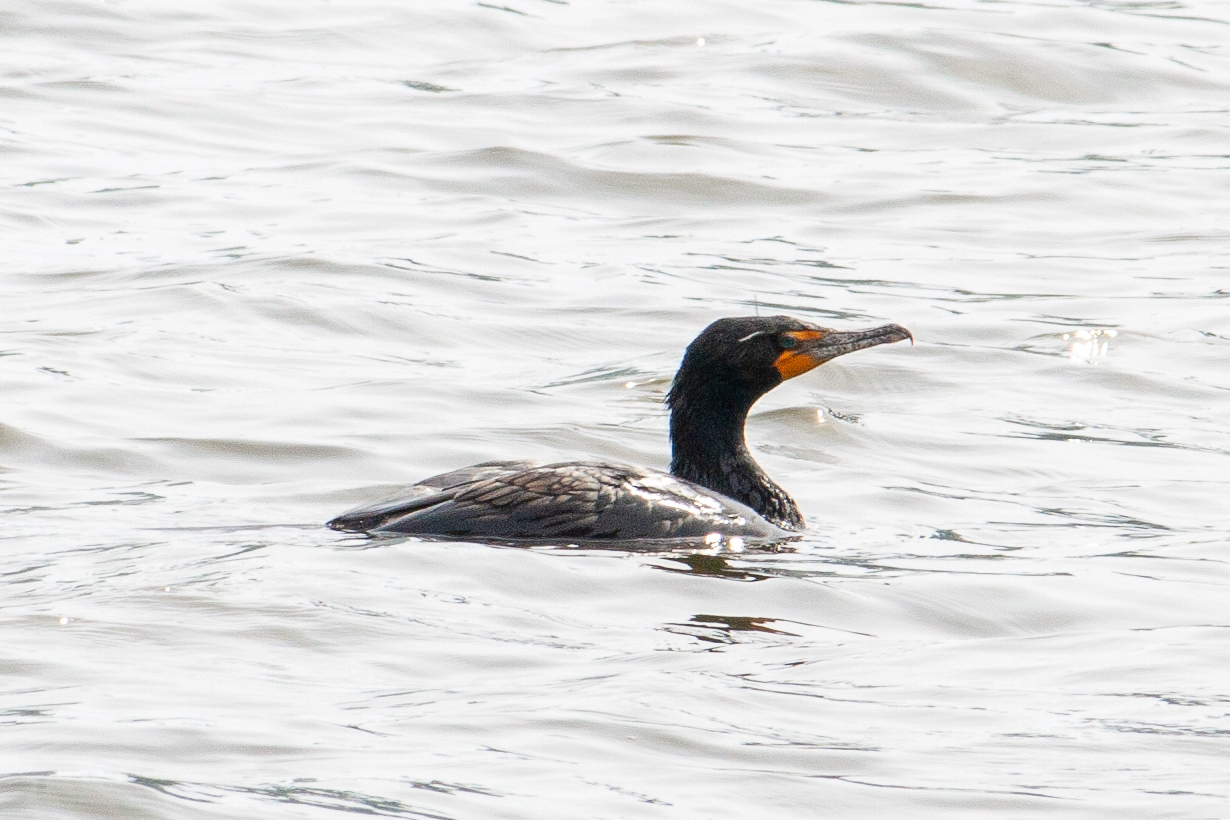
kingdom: Animalia
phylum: Chordata
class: Aves
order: Suliformes
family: Phalacrocoracidae
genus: Phalacrocorax
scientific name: Phalacrocorax auritus
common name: Double-crested cormorant
